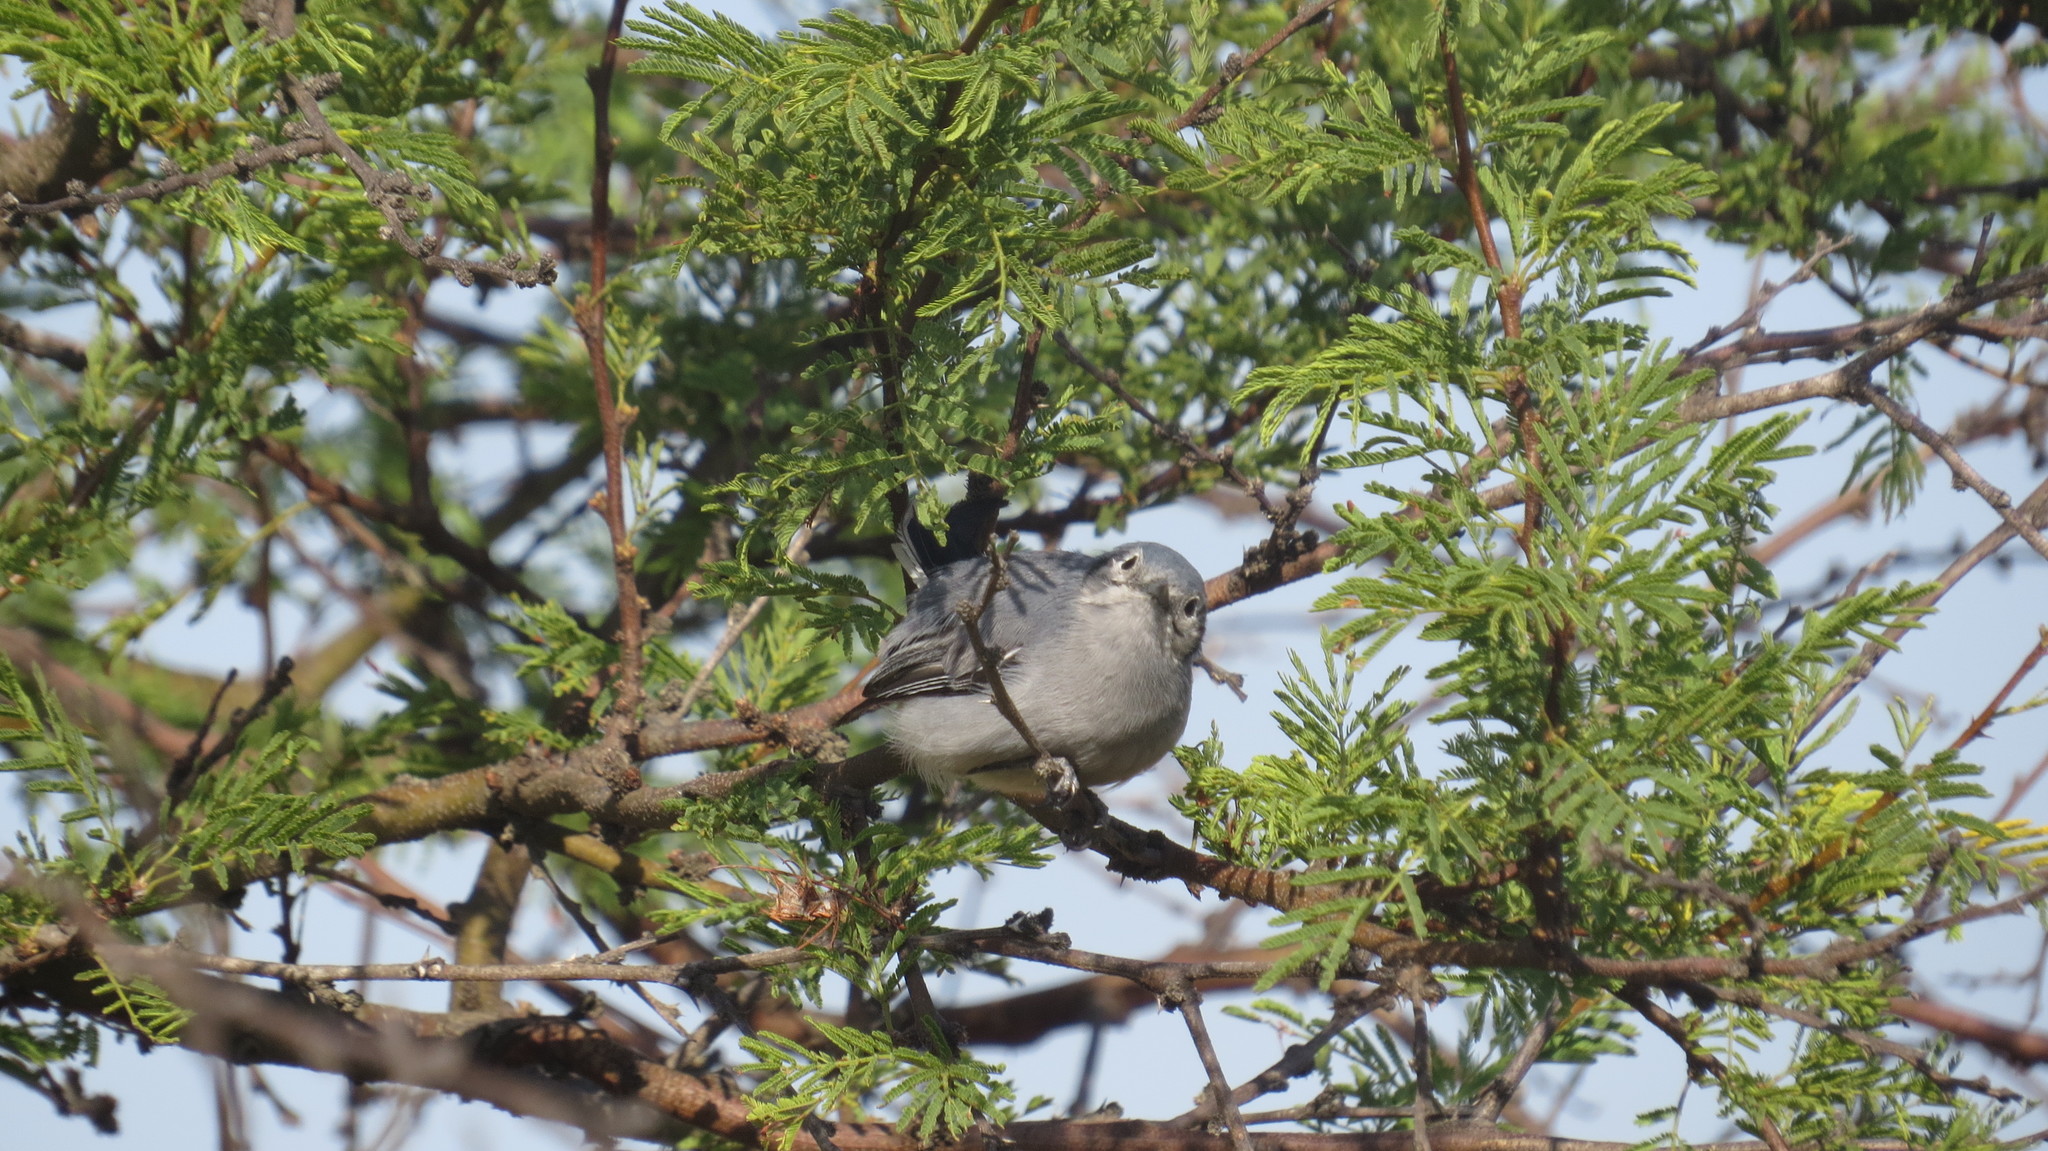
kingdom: Animalia
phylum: Chordata
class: Aves
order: Passeriformes
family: Polioptilidae
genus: Polioptila
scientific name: Polioptila dumicola
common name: Masked gnatcatcher
